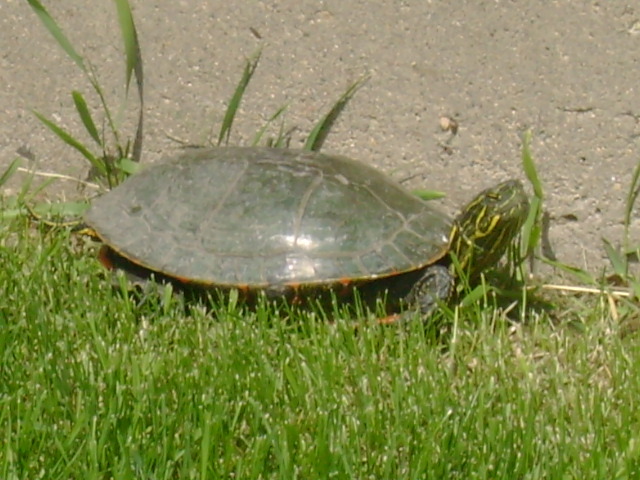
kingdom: Animalia
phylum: Chordata
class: Testudines
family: Emydidae
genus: Chrysemys
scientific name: Chrysemys picta
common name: Painted turtle
